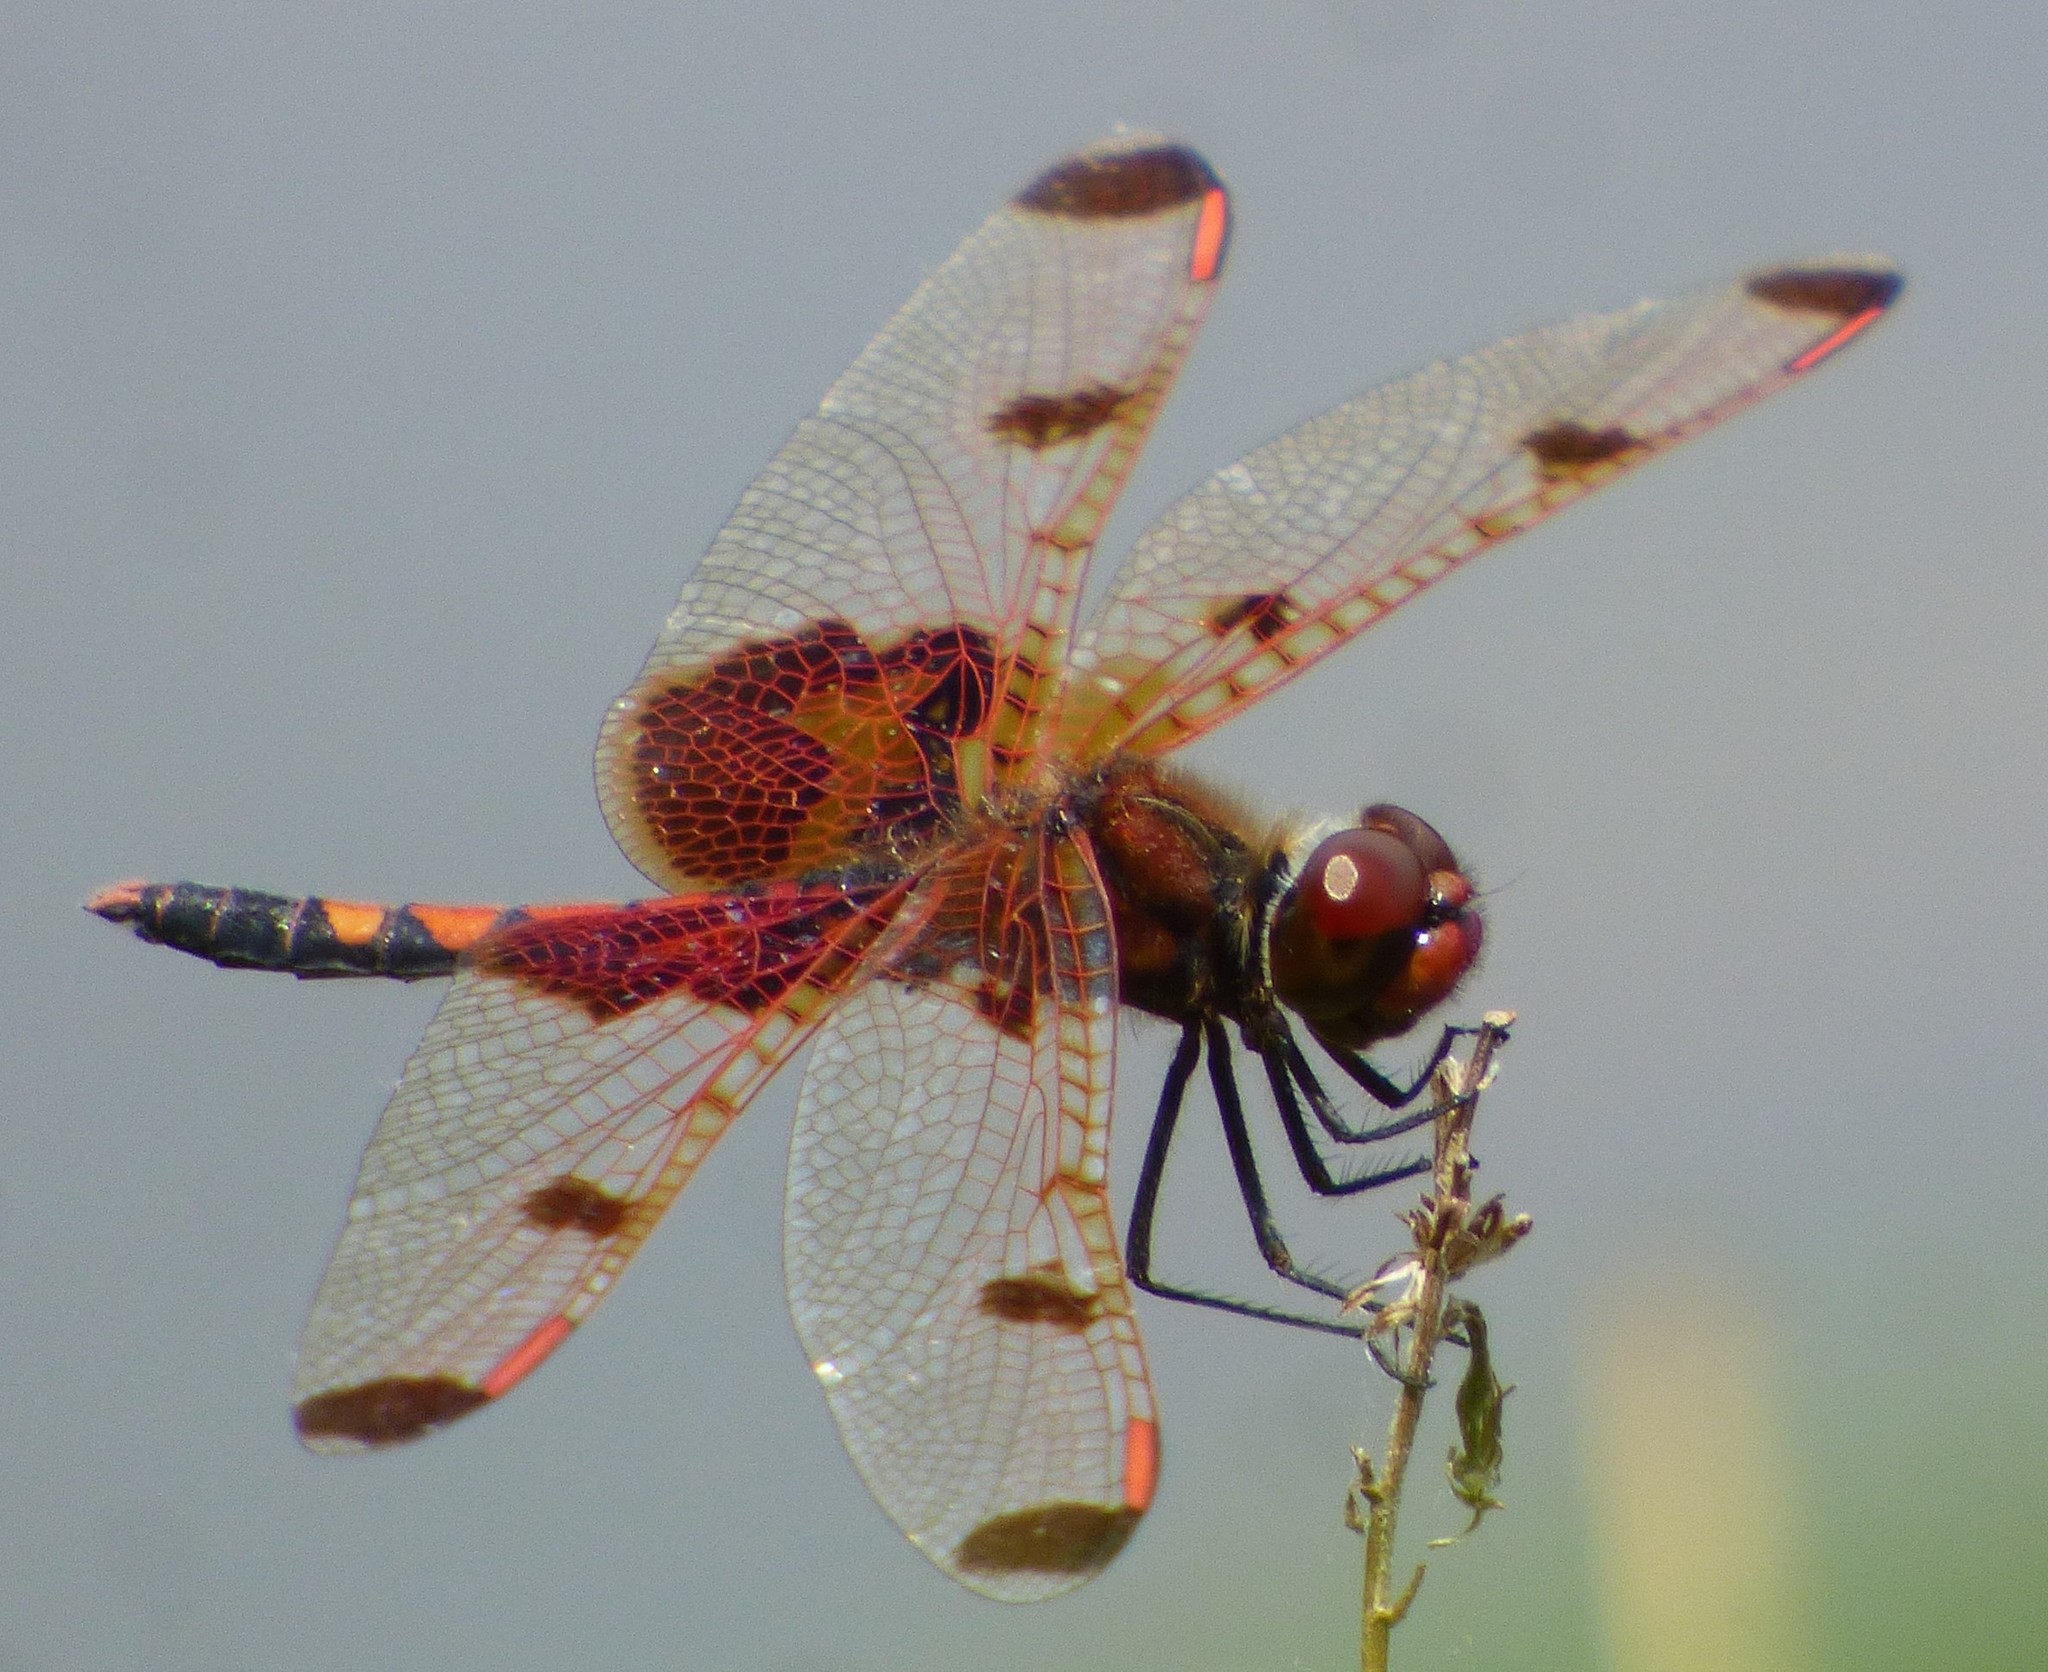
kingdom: Animalia
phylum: Arthropoda
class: Insecta
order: Odonata
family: Libellulidae
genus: Celithemis
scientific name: Celithemis elisa
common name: Calico pennant
